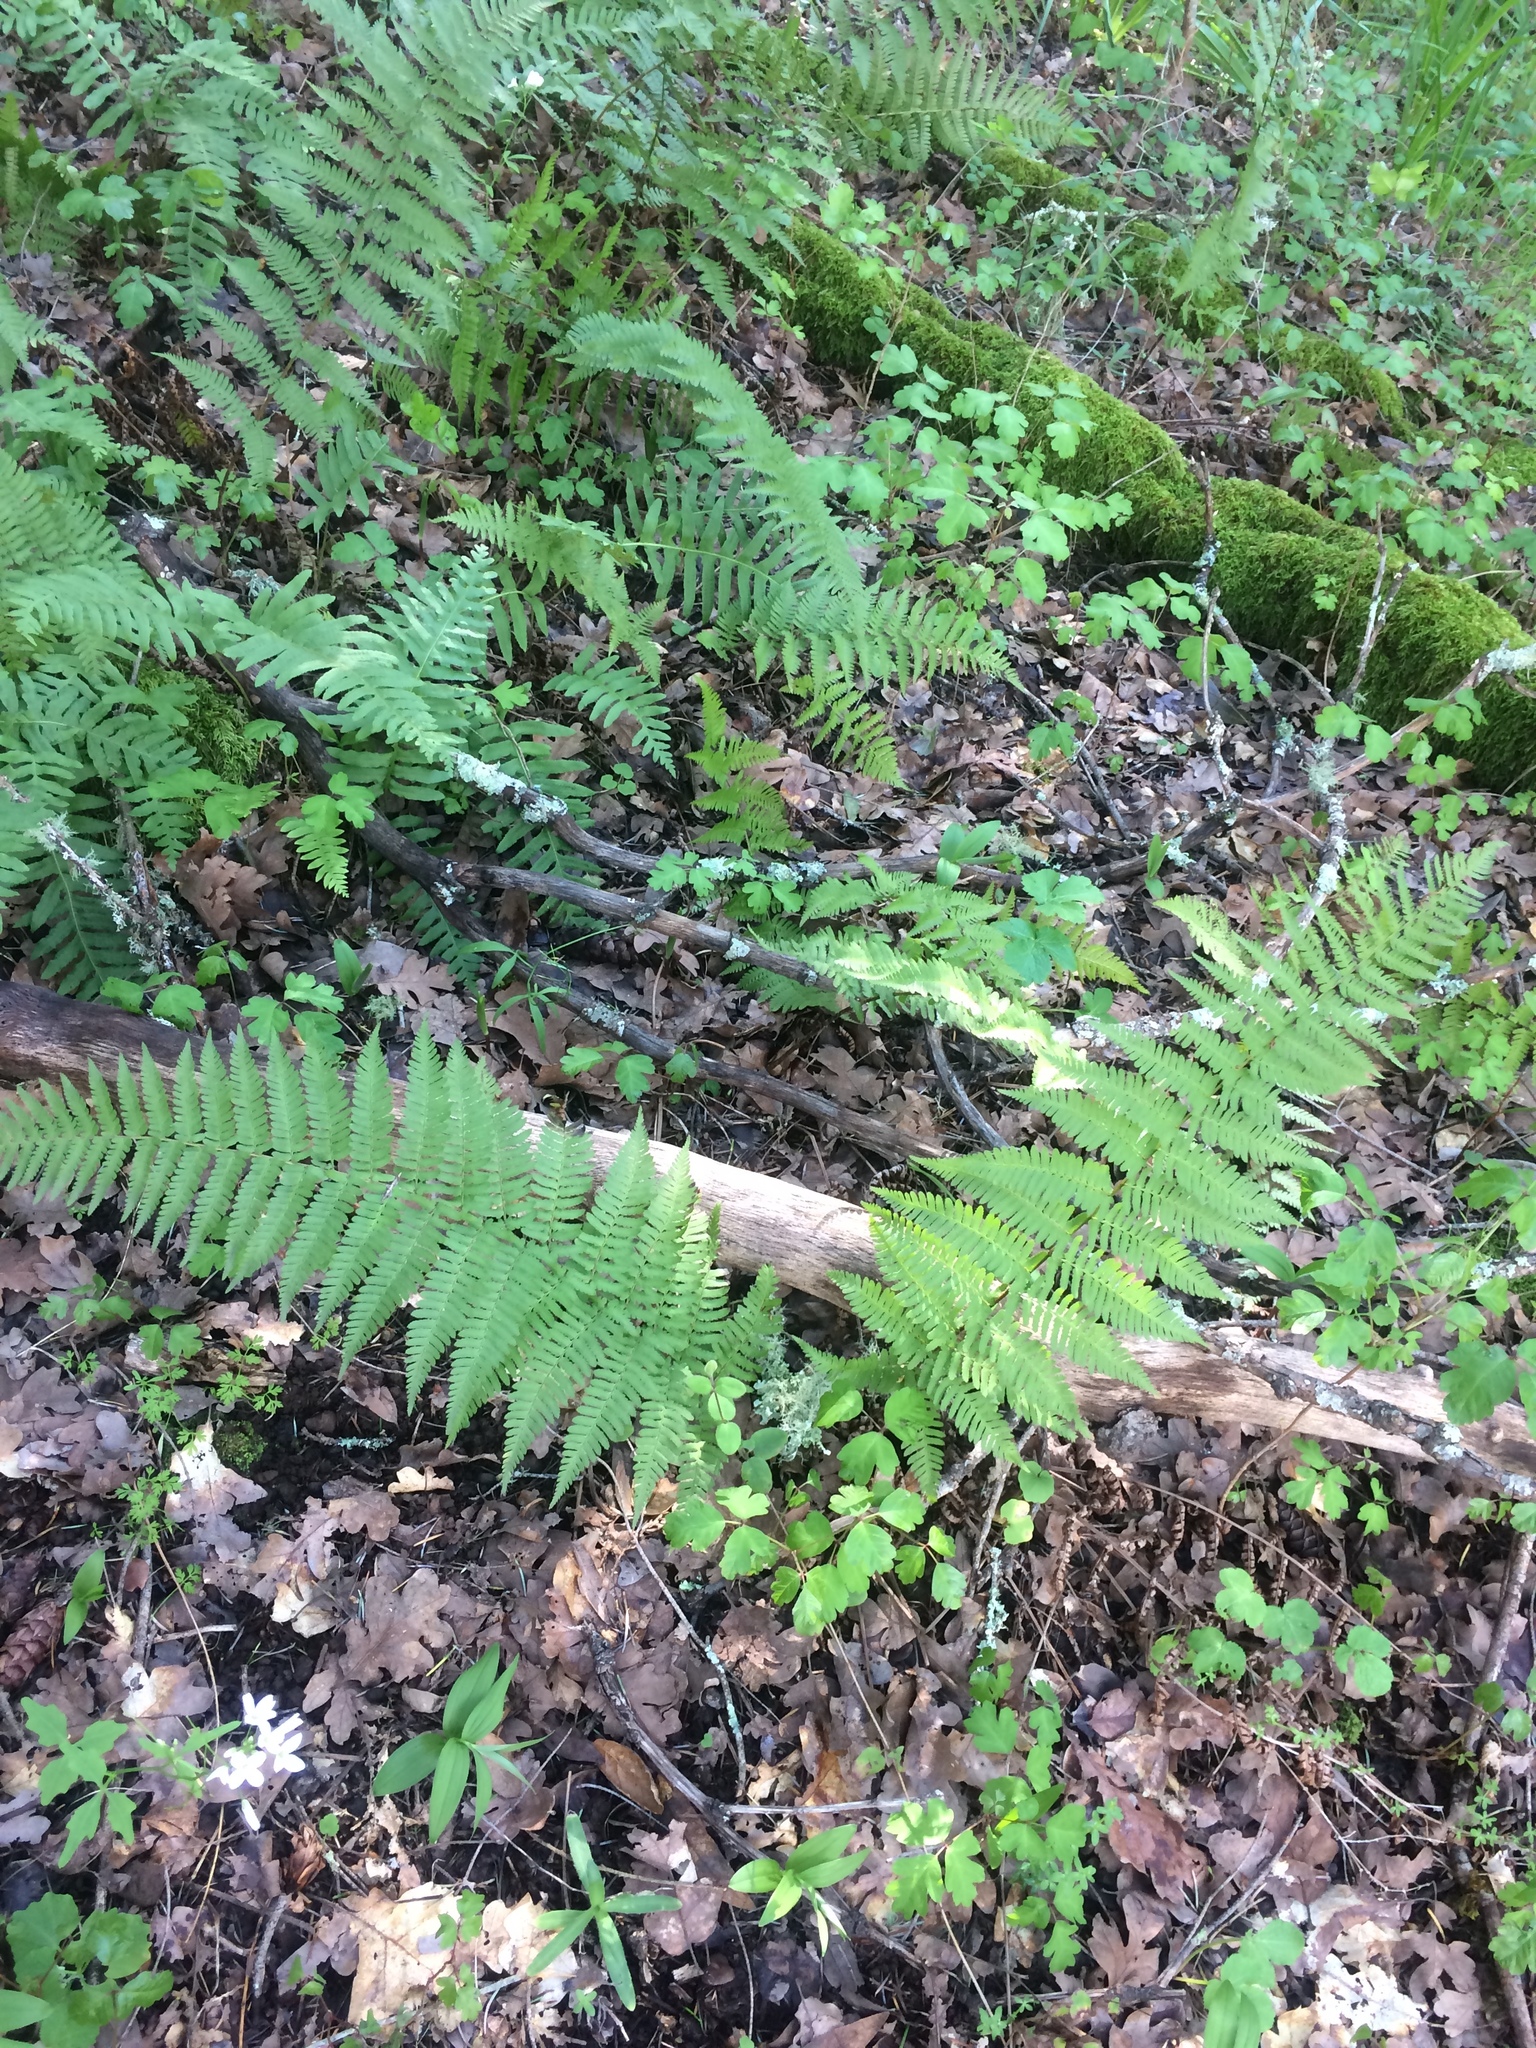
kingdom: Plantae
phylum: Tracheophyta
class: Polypodiopsida
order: Polypodiales
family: Dryopteridaceae
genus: Dryopteris
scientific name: Dryopteris arguta
